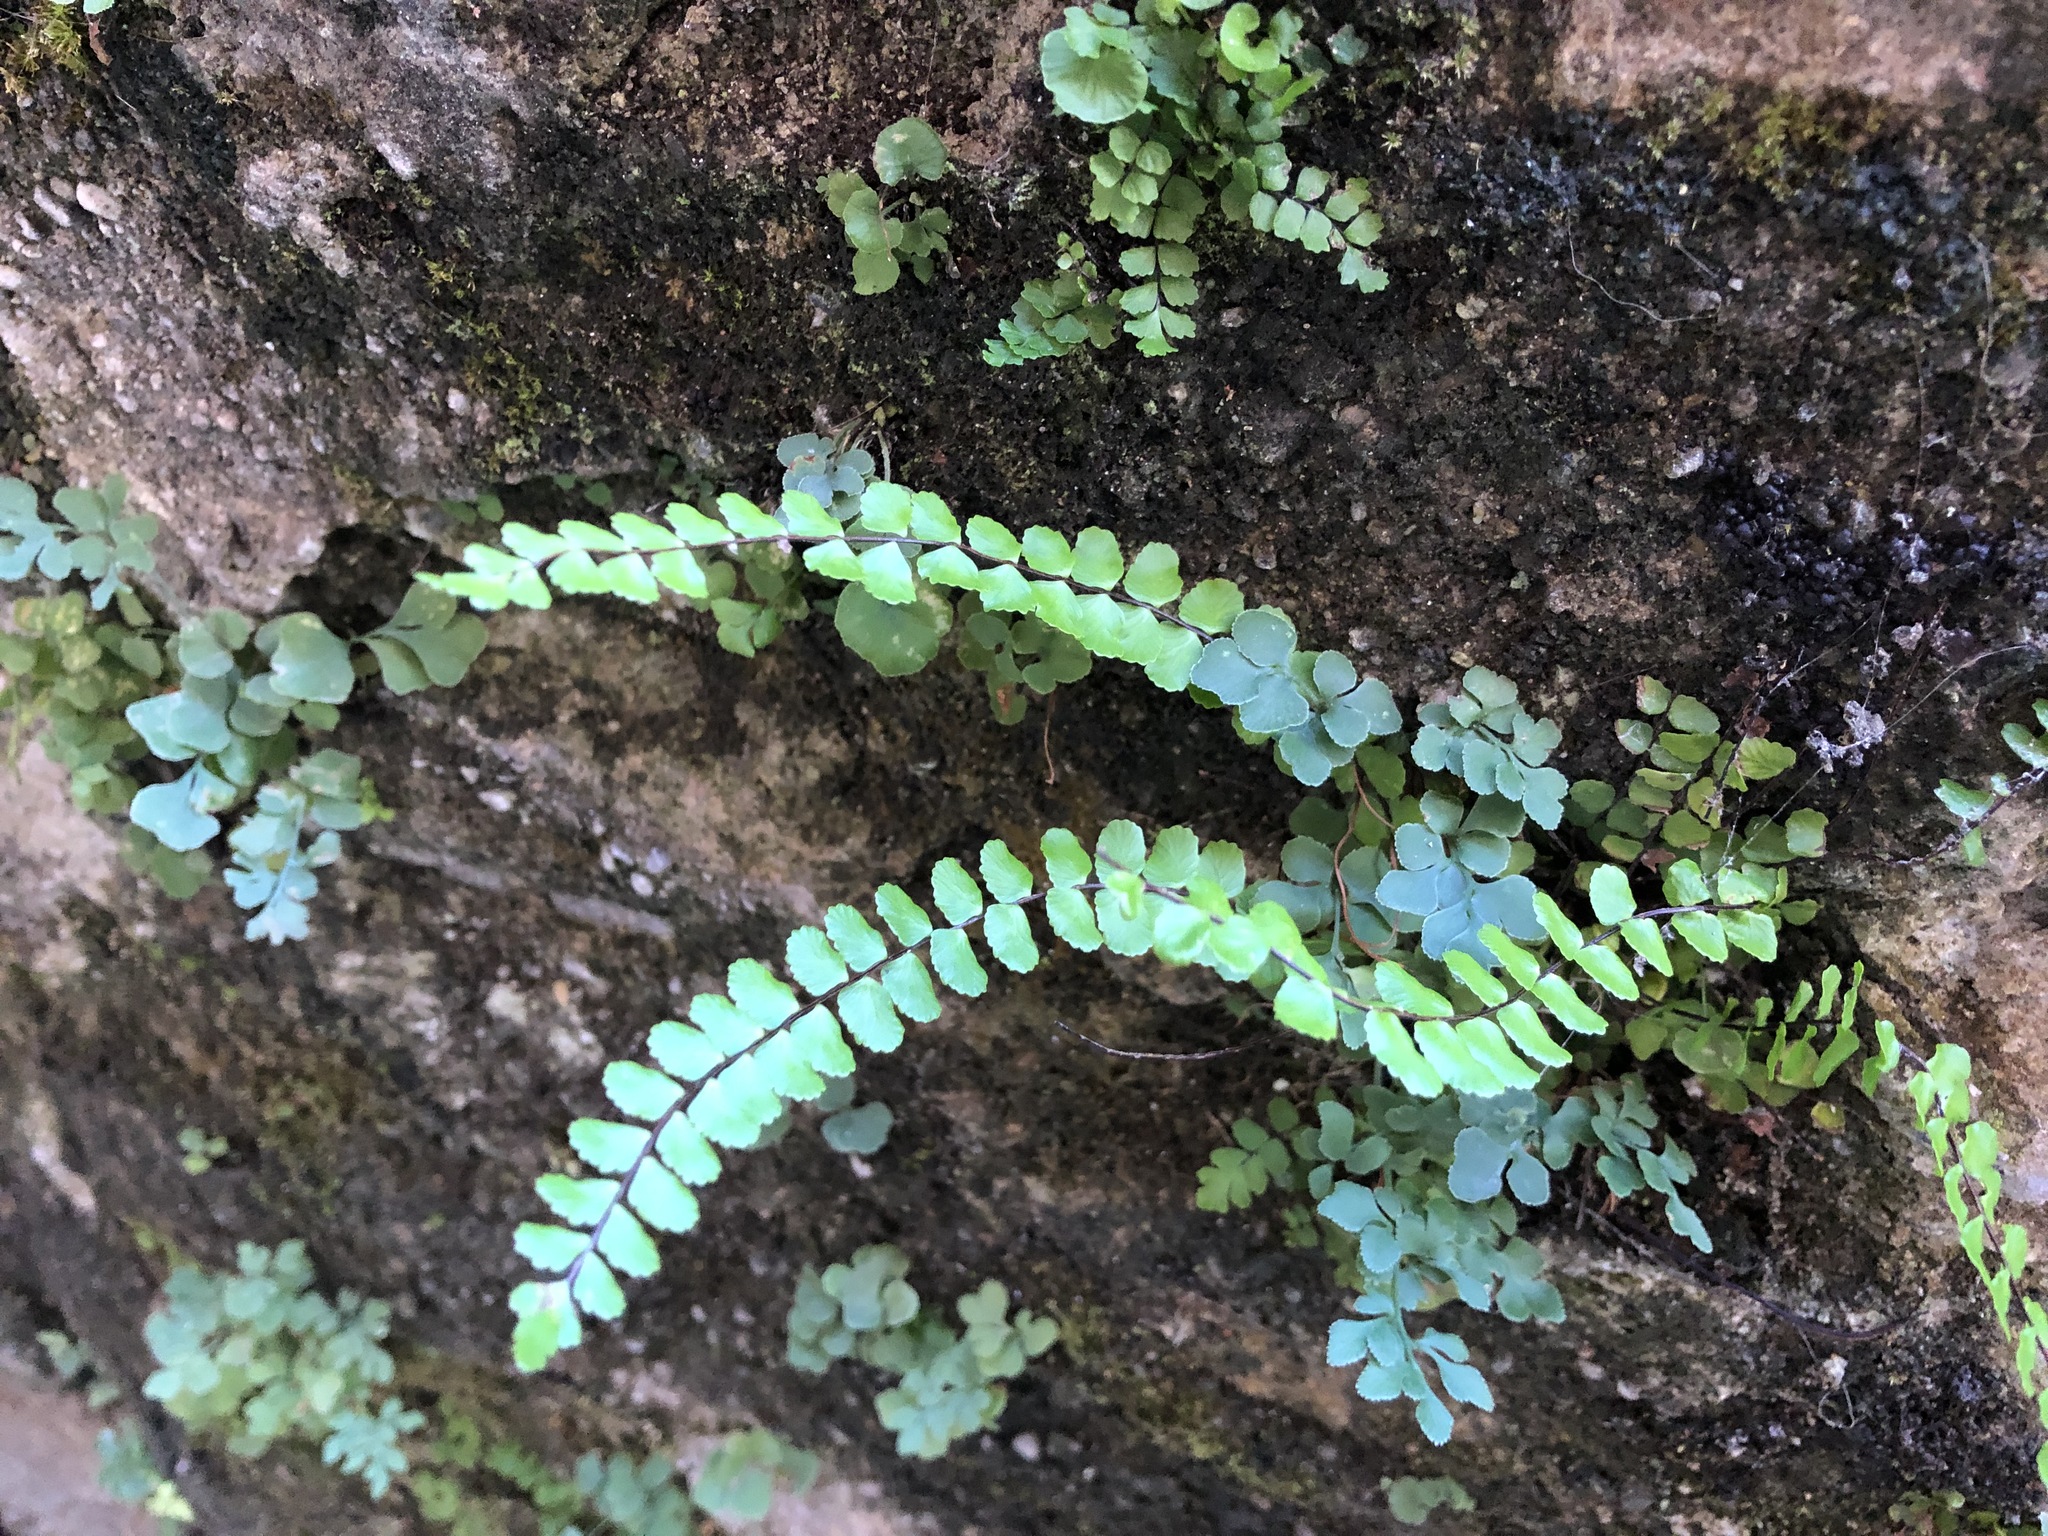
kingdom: Plantae
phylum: Tracheophyta
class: Polypodiopsida
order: Polypodiales
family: Aspleniaceae
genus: Asplenium
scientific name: Asplenium trichomanes
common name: Maidenhair spleenwort
